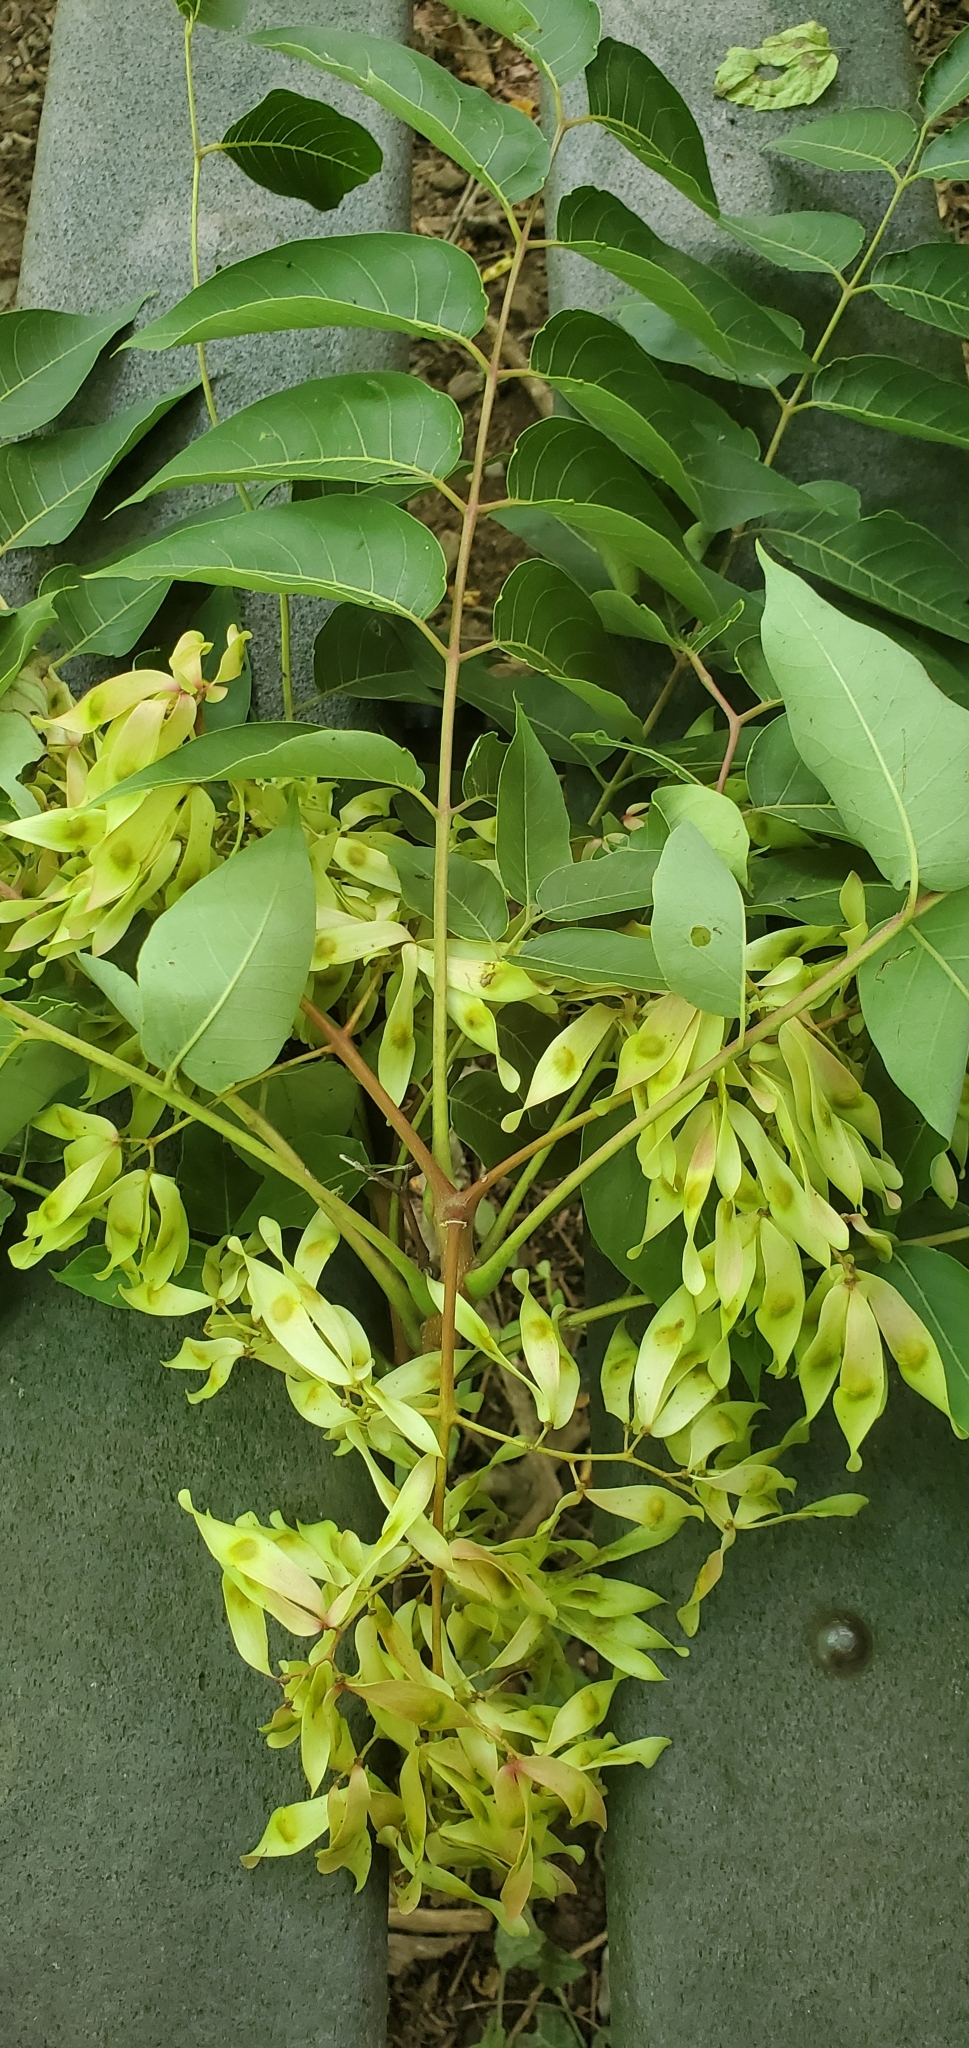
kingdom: Plantae
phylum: Tracheophyta
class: Magnoliopsida
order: Sapindales
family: Simaroubaceae
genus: Ailanthus
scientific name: Ailanthus altissima
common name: Tree-of-heaven
